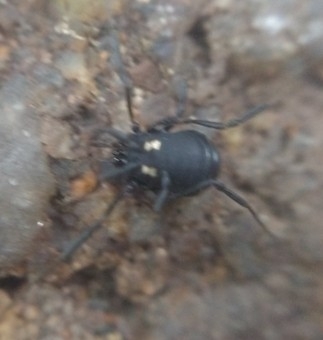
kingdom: Animalia
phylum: Arthropoda
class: Arachnida
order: Opiliones
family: Nemastomatidae
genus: Nemastoma
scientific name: Nemastoma
